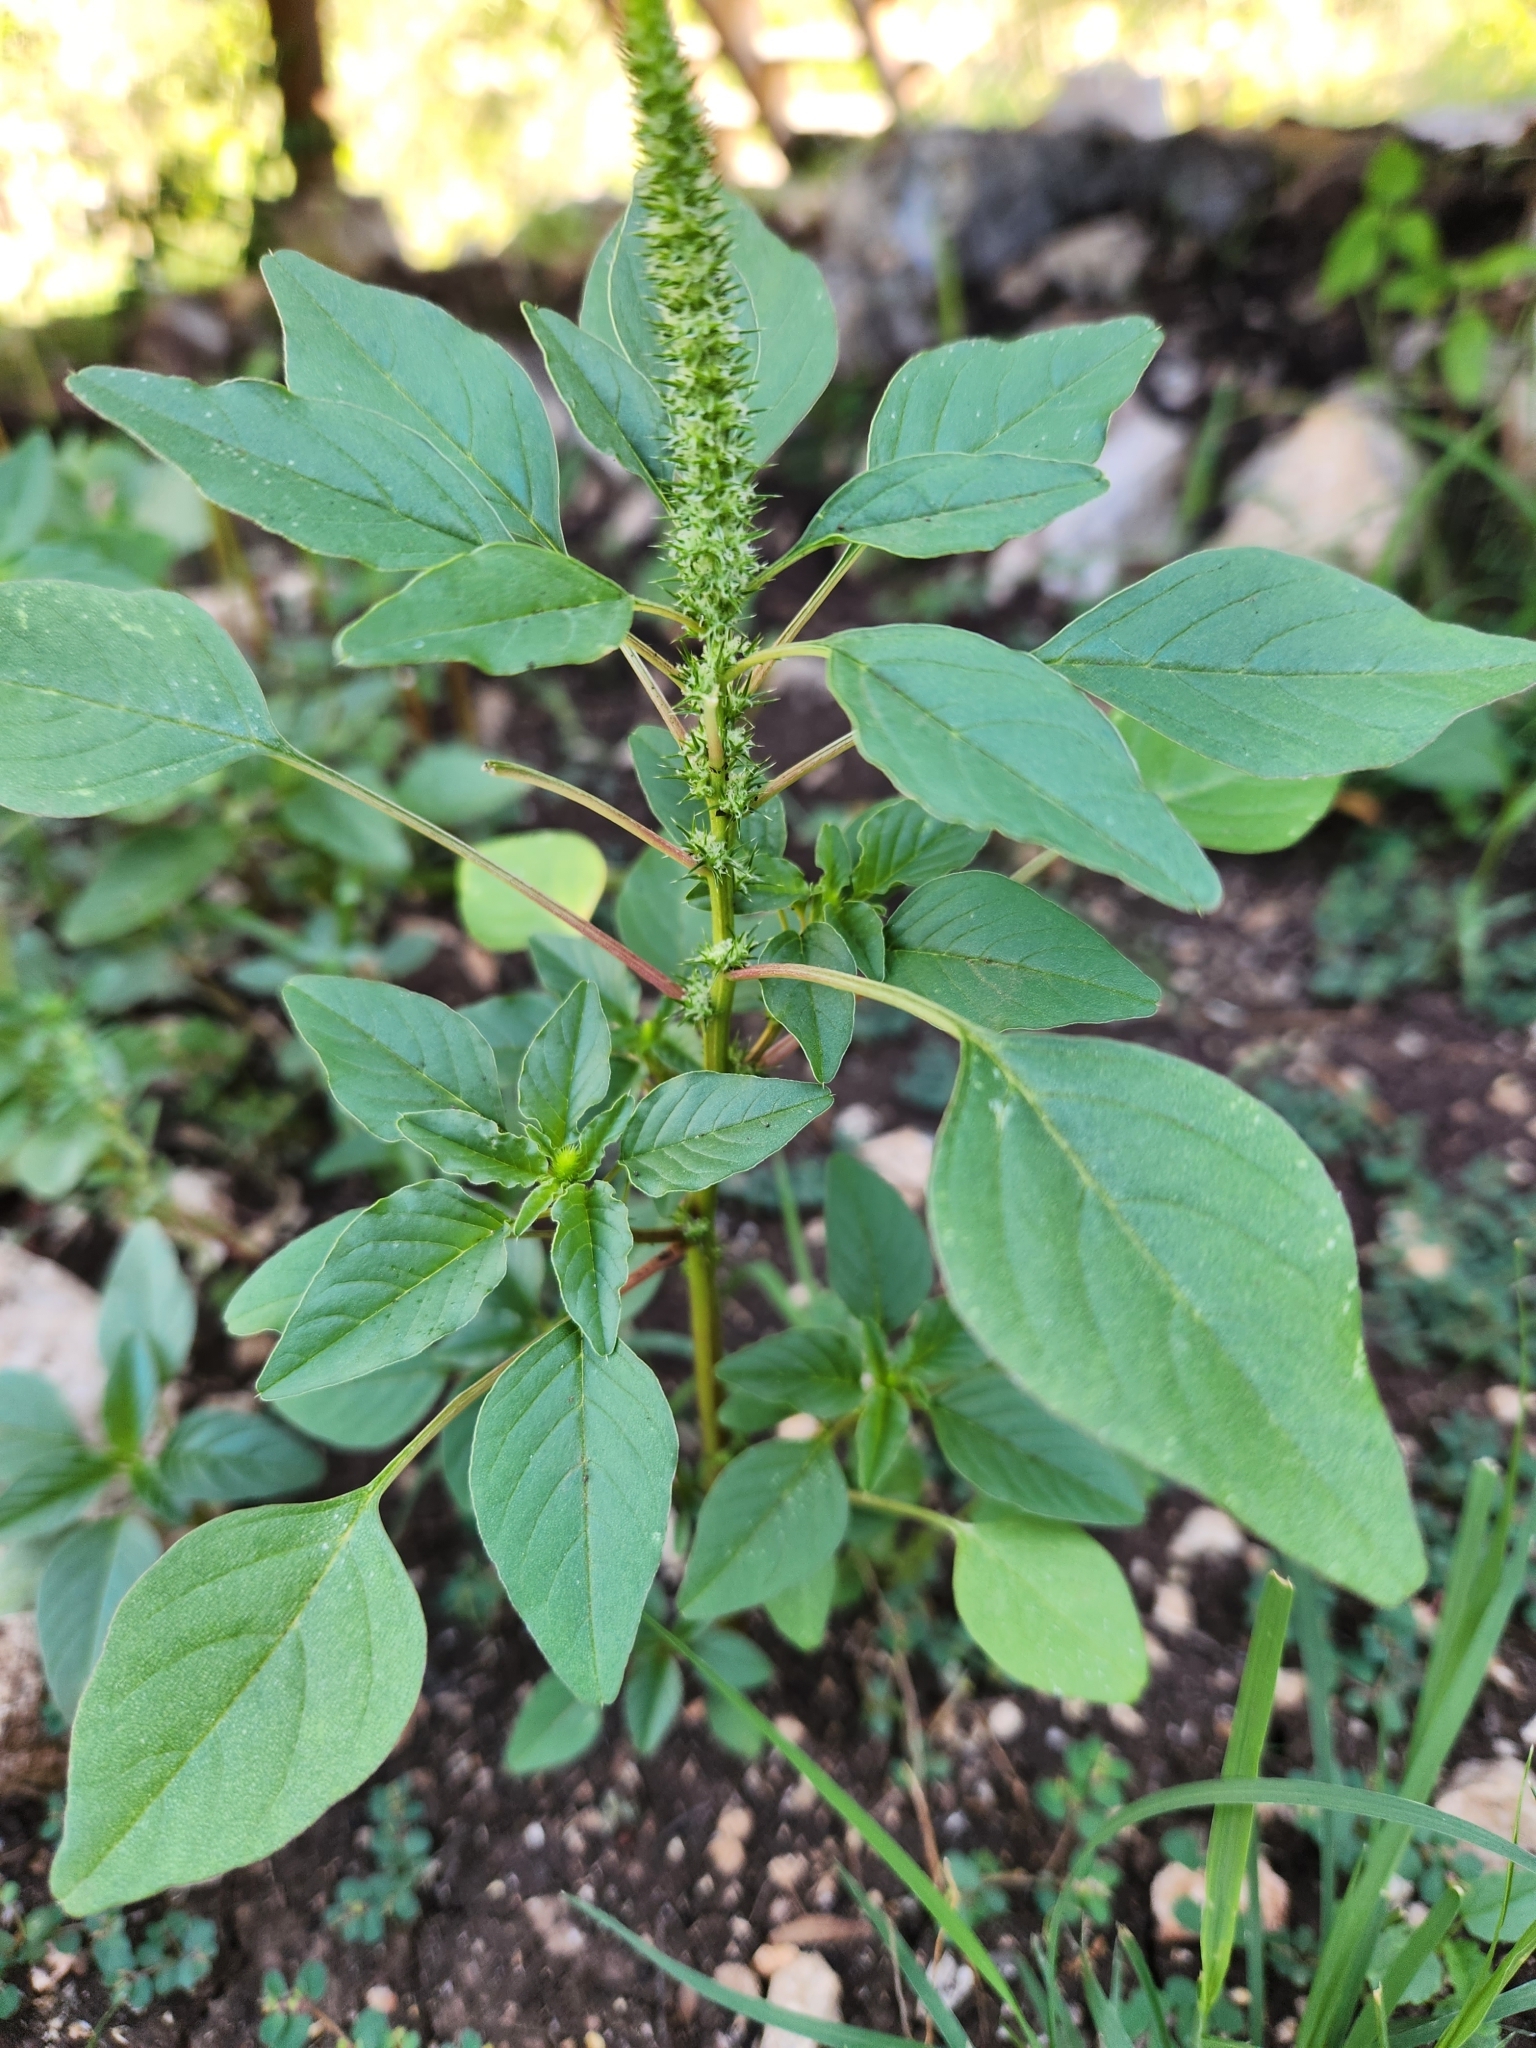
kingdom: Plantae
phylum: Tracheophyta
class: Magnoliopsida
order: Caryophyllales
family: Amaranthaceae
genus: Amaranthus
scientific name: Amaranthus palmeri
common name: Dioecious amaranth
